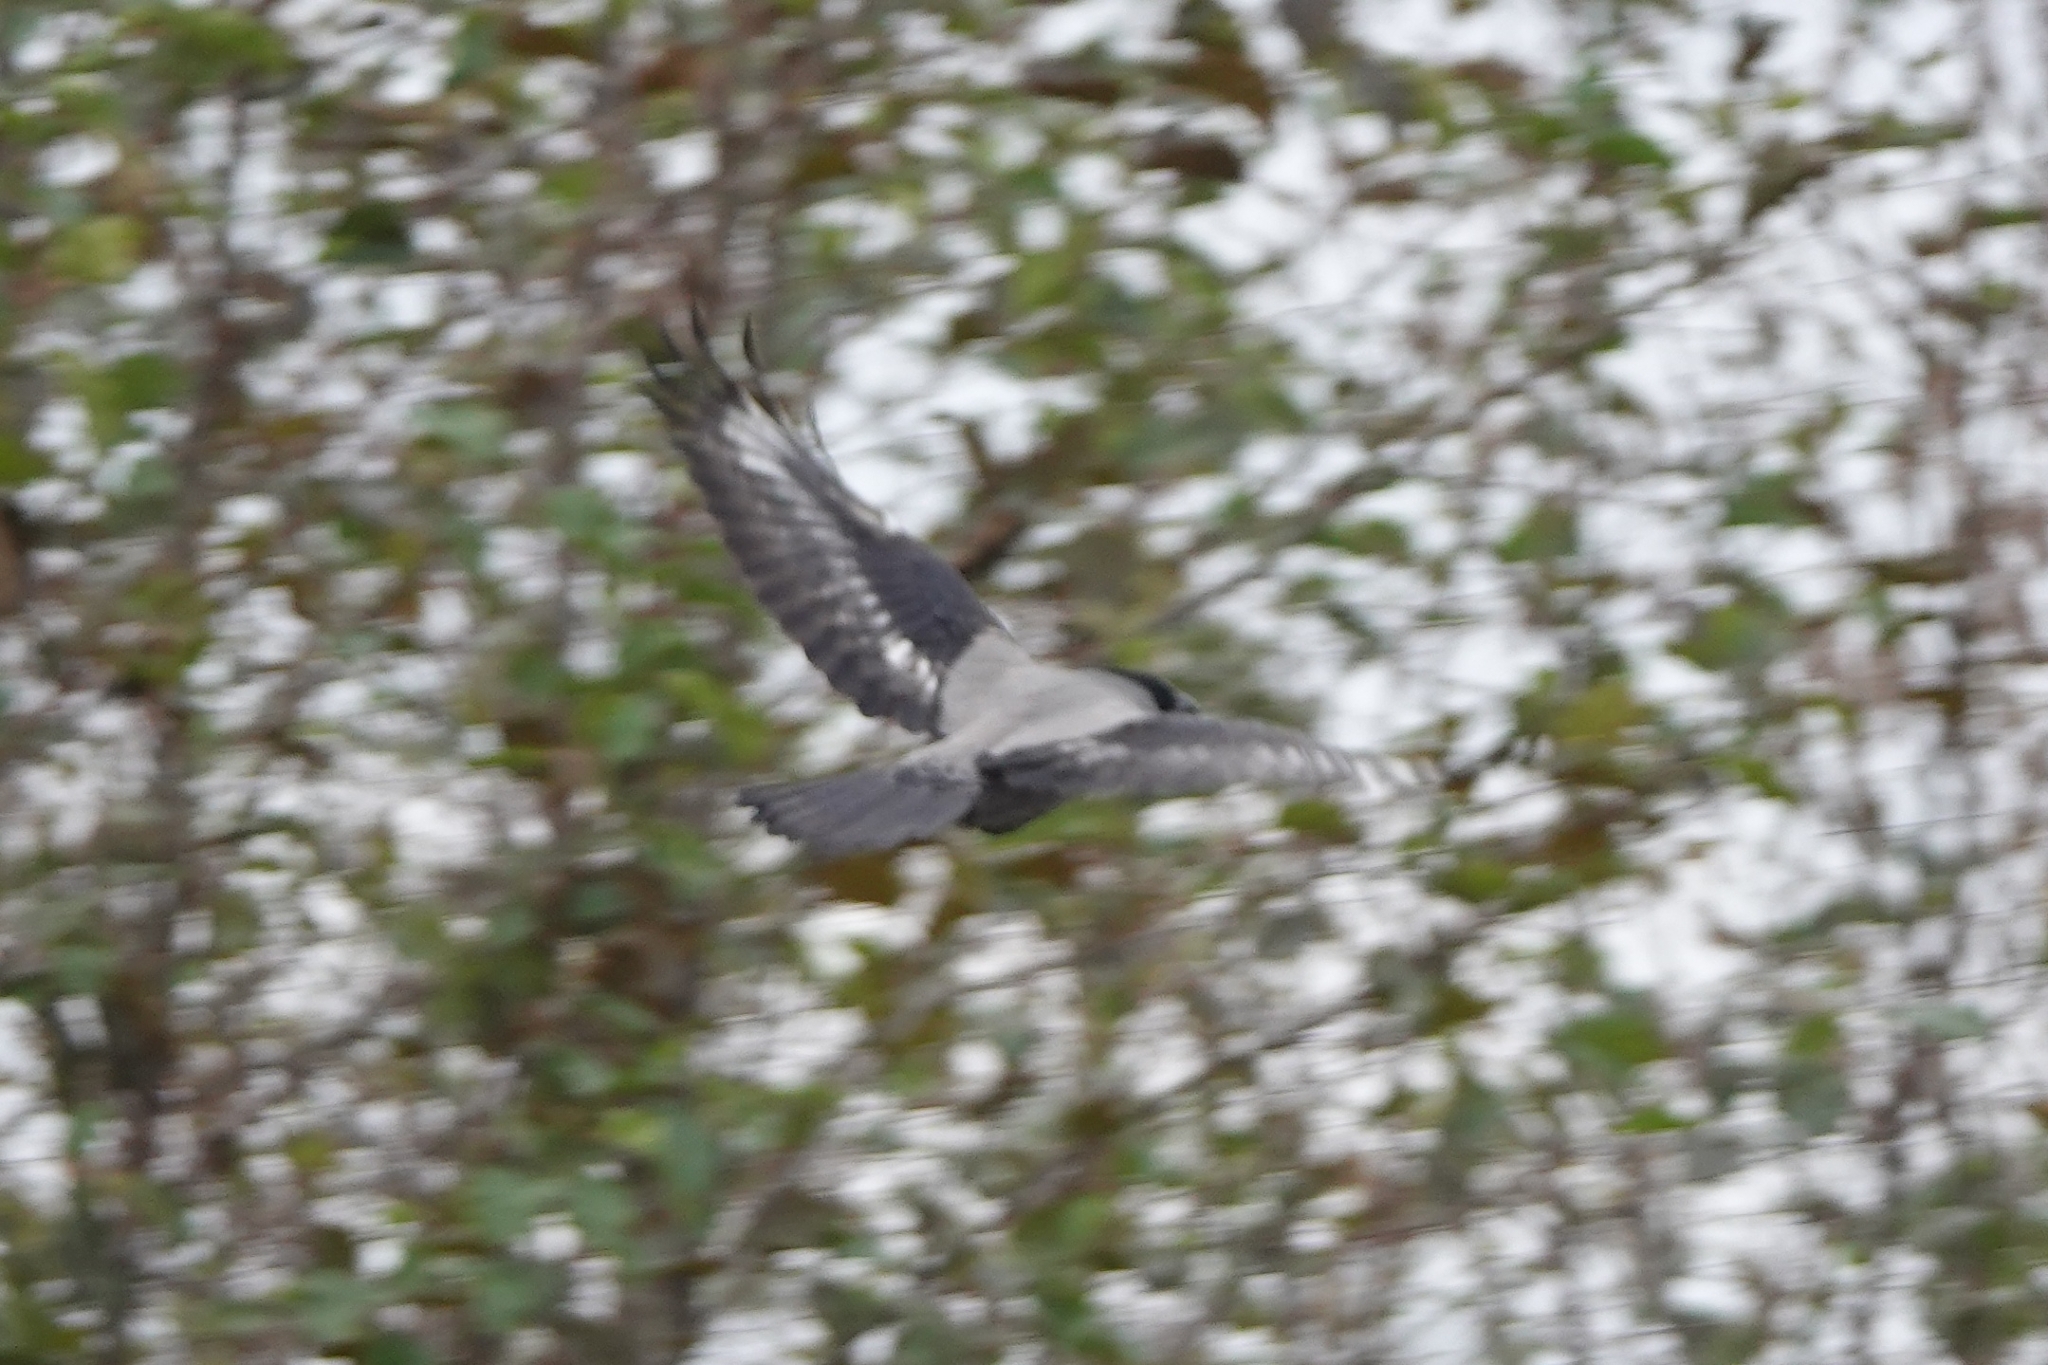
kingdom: Animalia
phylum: Chordata
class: Aves
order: Passeriformes
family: Corvidae
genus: Corvus
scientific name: Corvus cornix
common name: Hooded crow
